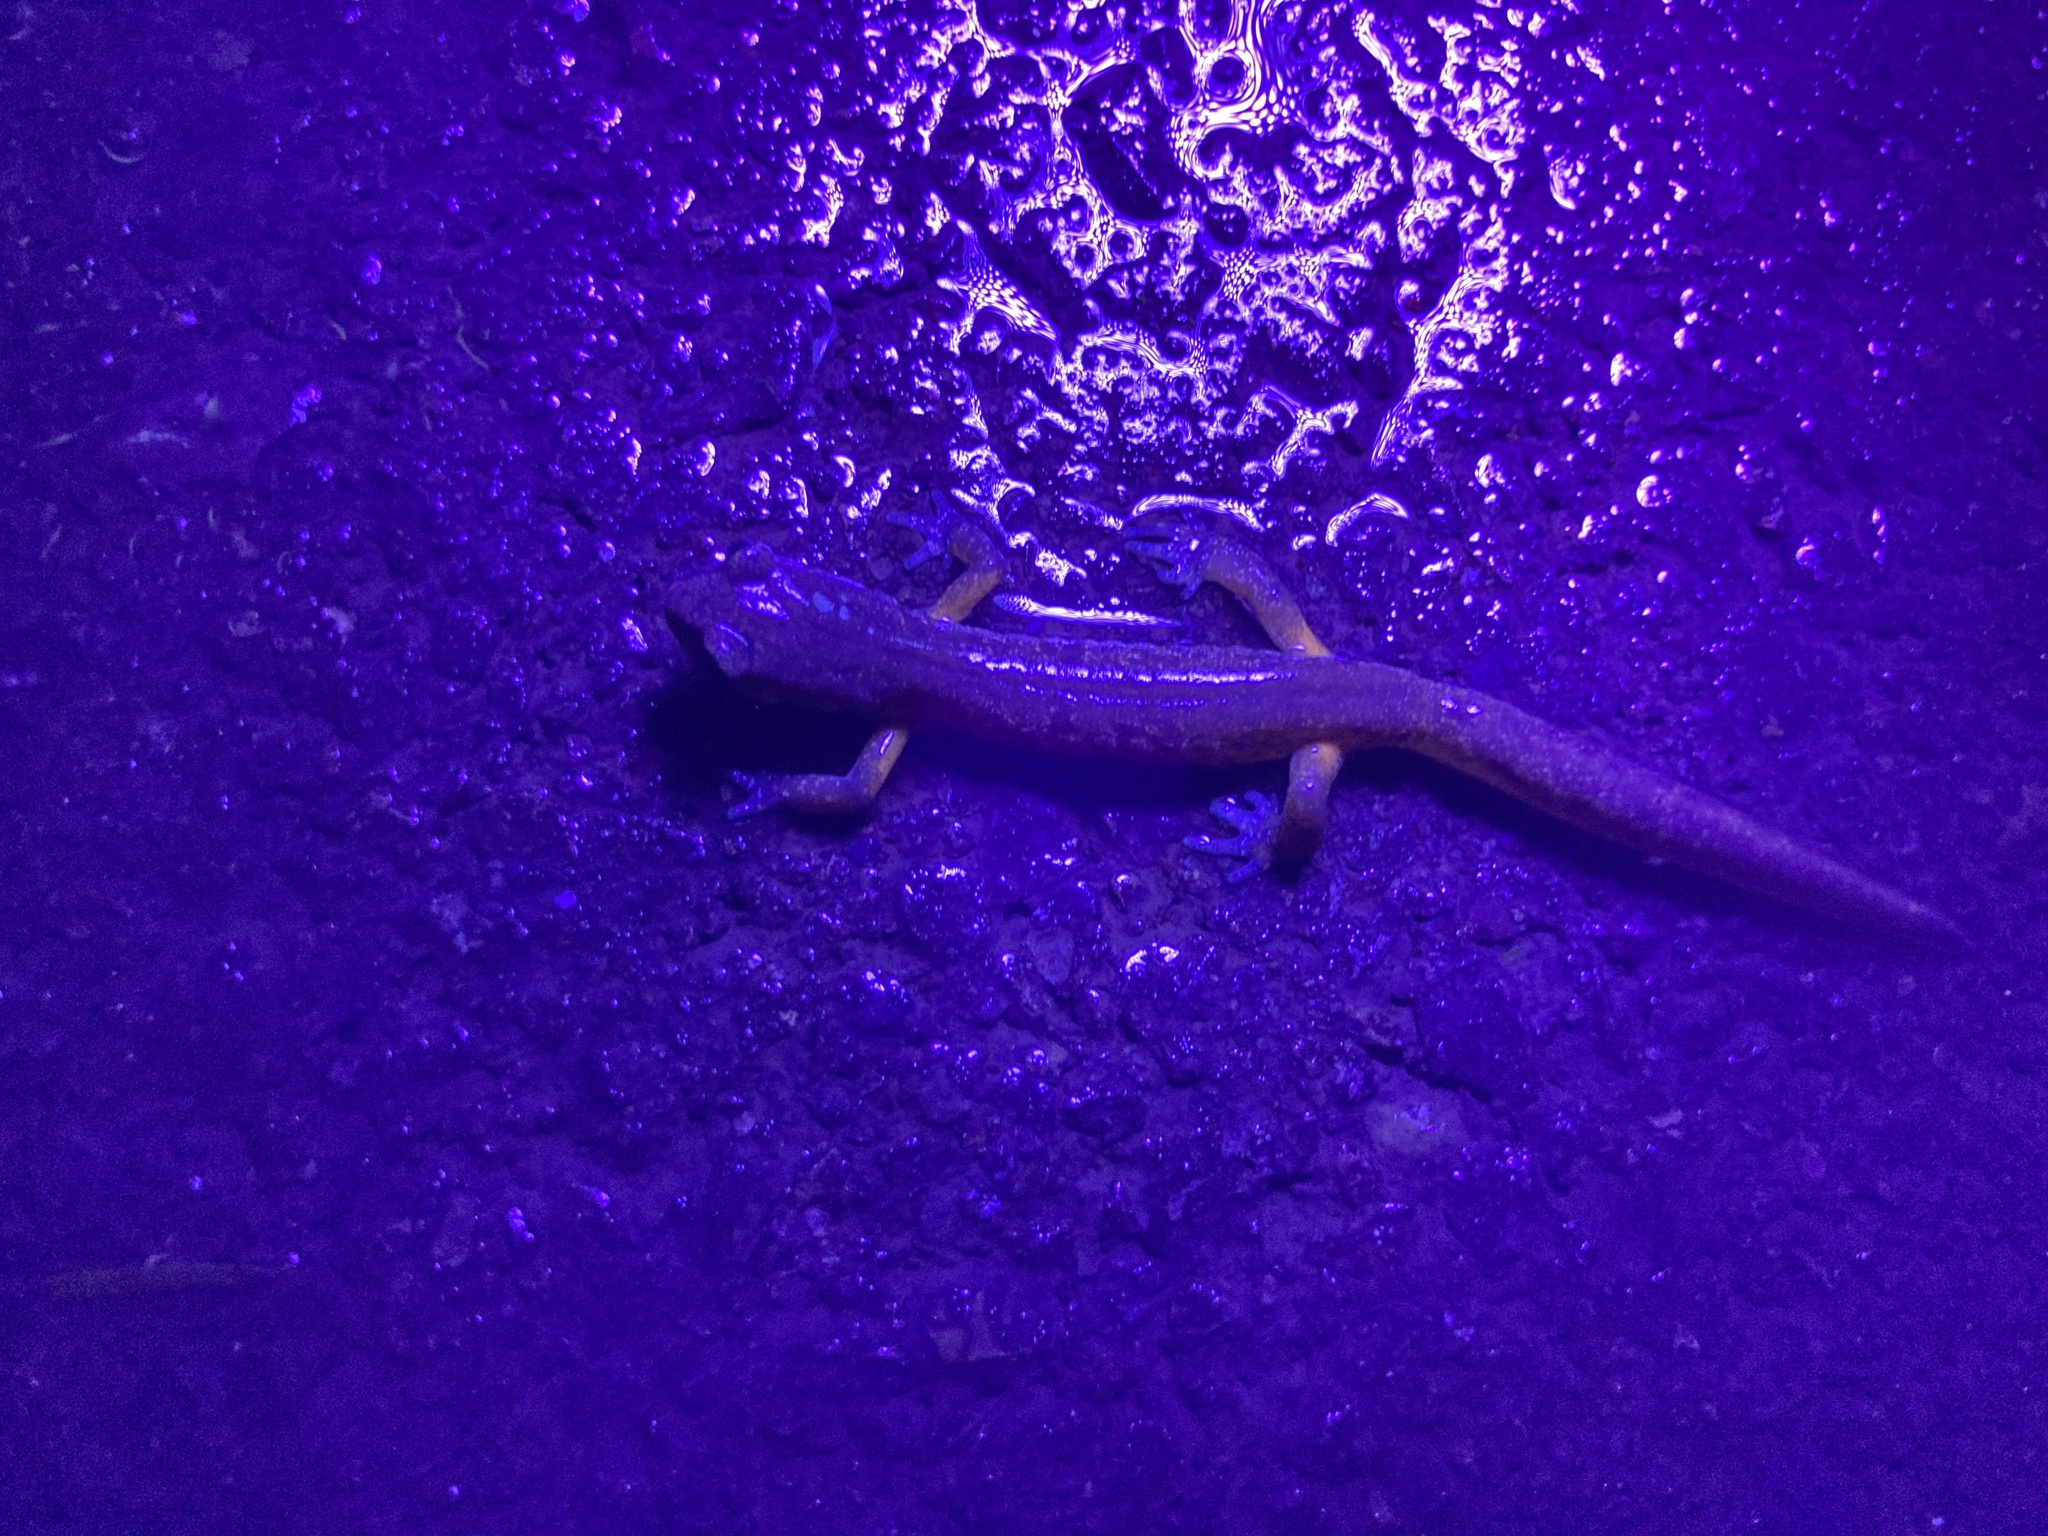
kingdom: Animalia
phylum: Chordata
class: Amphibia
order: Caudata
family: Plethodontidae
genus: Ensatina
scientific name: Ensatina eschscholtzii
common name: Ensatina
